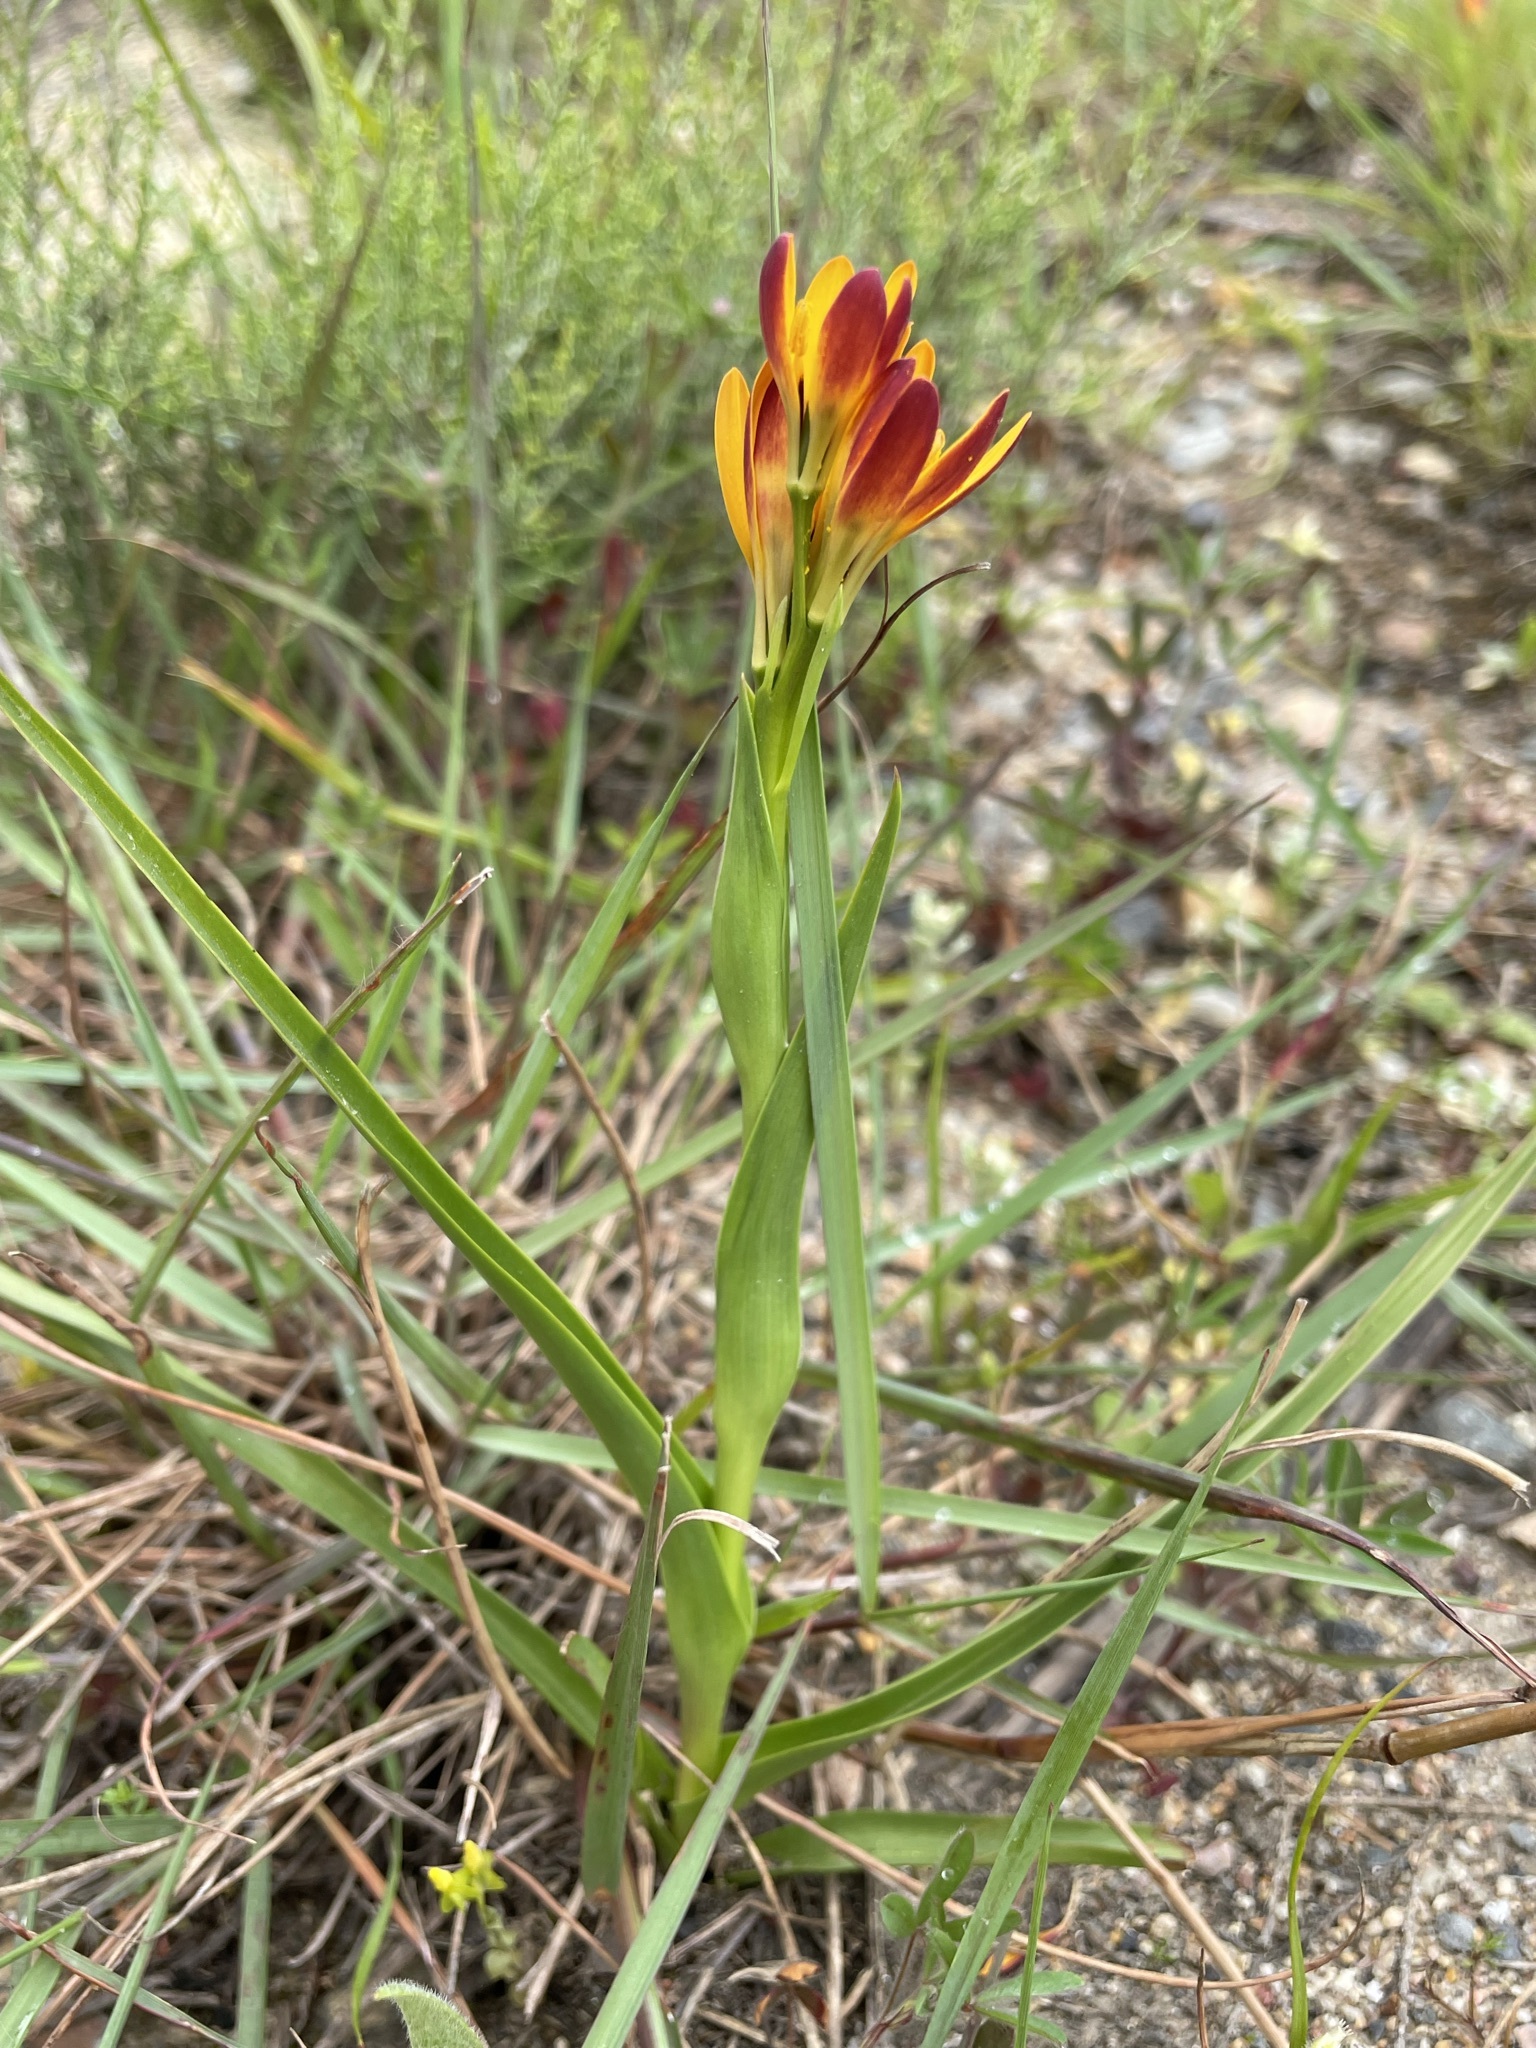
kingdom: Plantae
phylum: Tracheophyta
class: Liliopsida
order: Liliales
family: Colchicaceae
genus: Baeometra
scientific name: Baeometra uniflora
